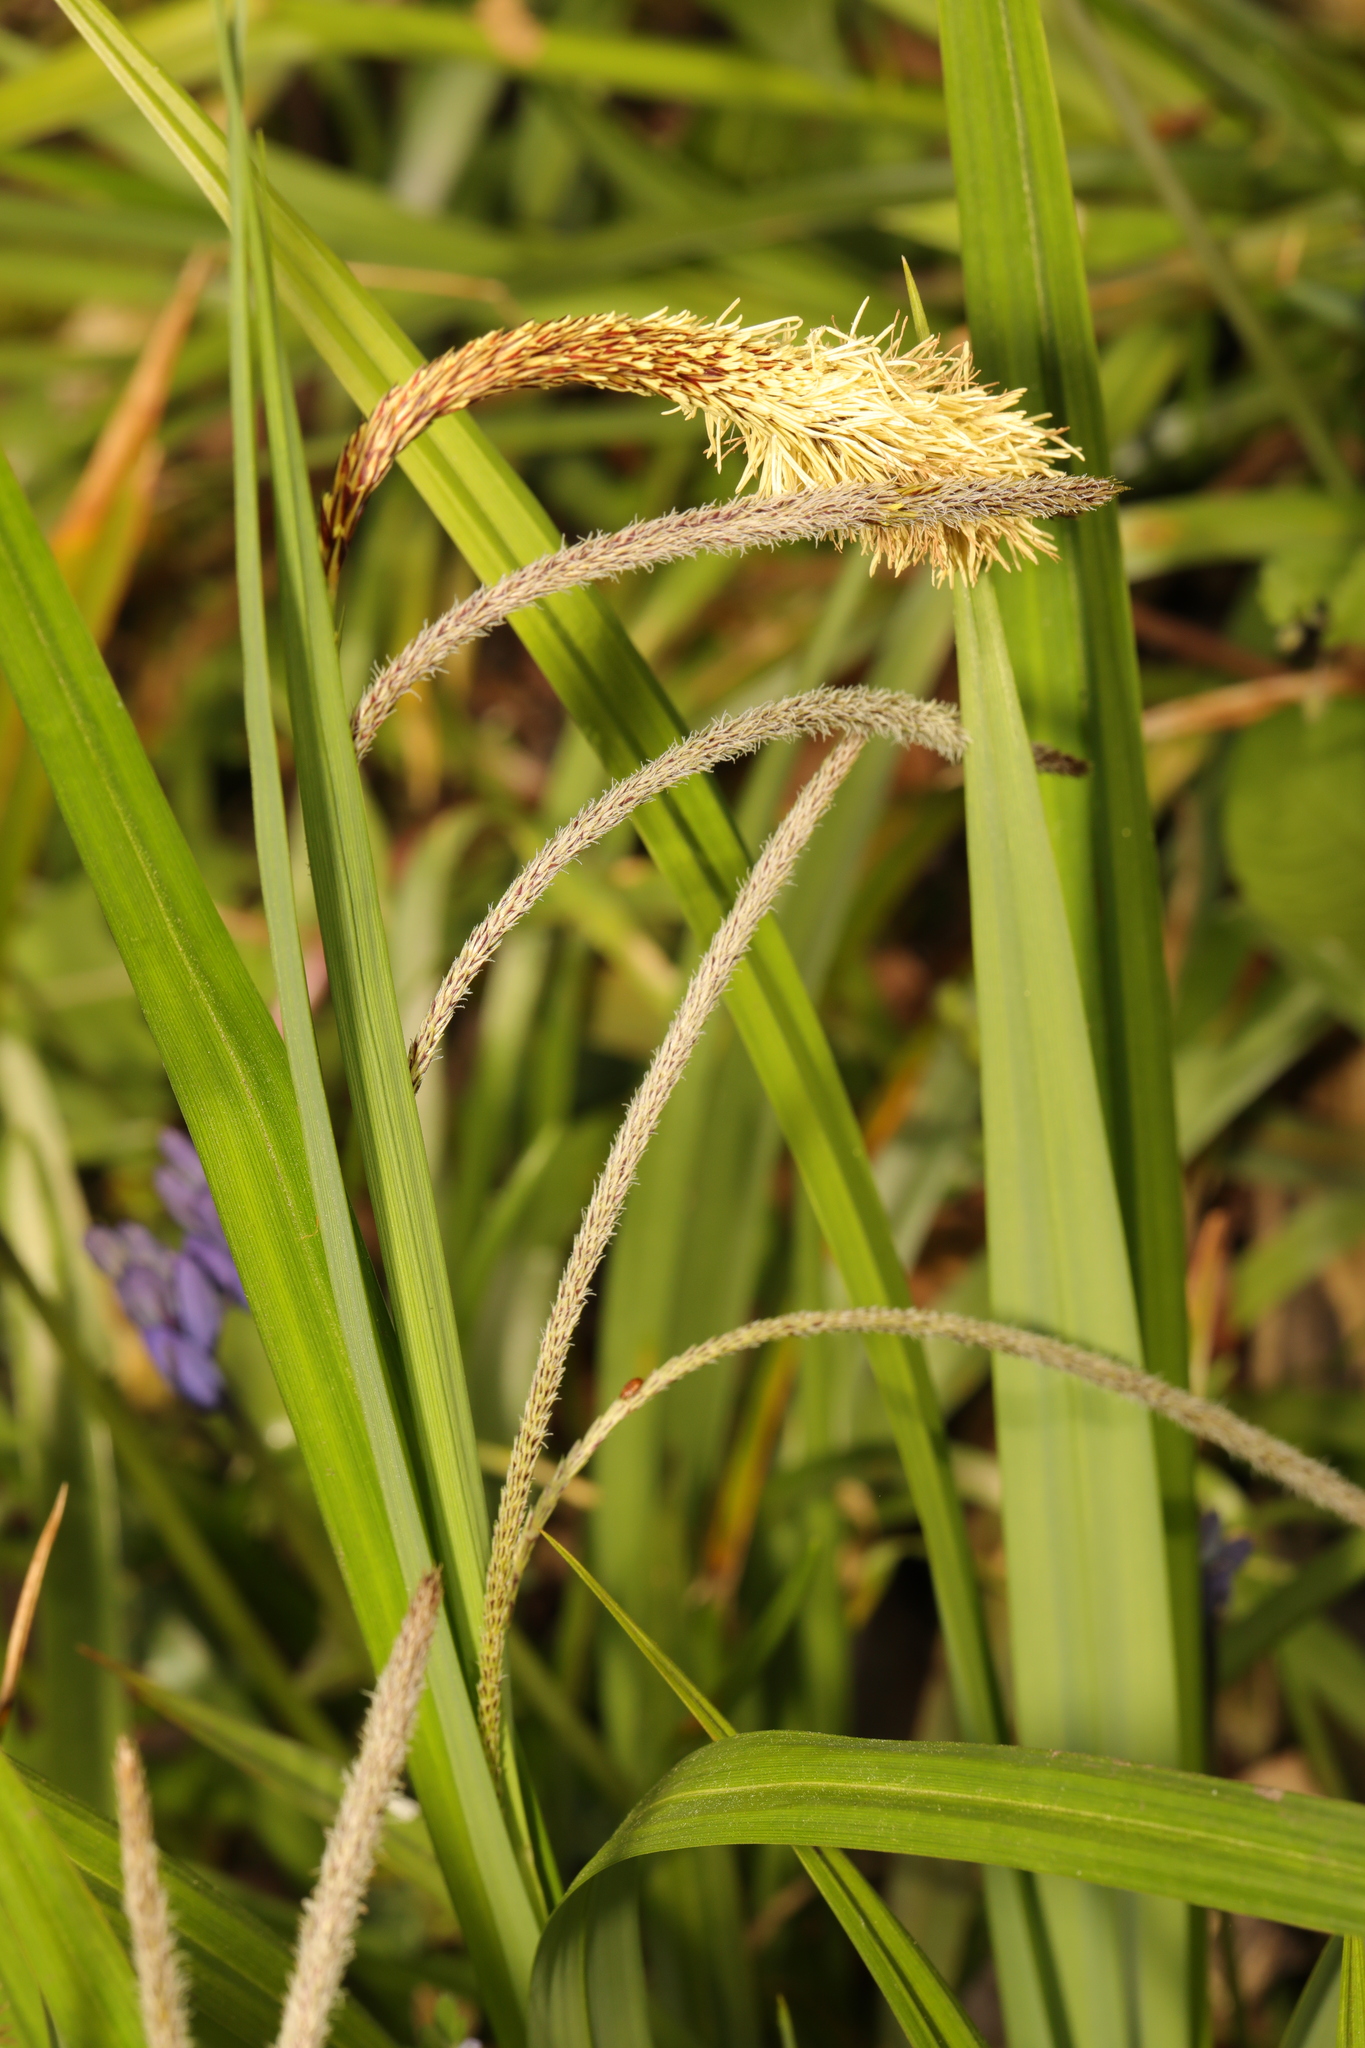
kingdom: Plantae
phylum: Tracheophyta
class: Liliopsida
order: Poales
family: Cyperaceae
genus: Carex
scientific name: Carex pendula
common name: Pendulous sedge
